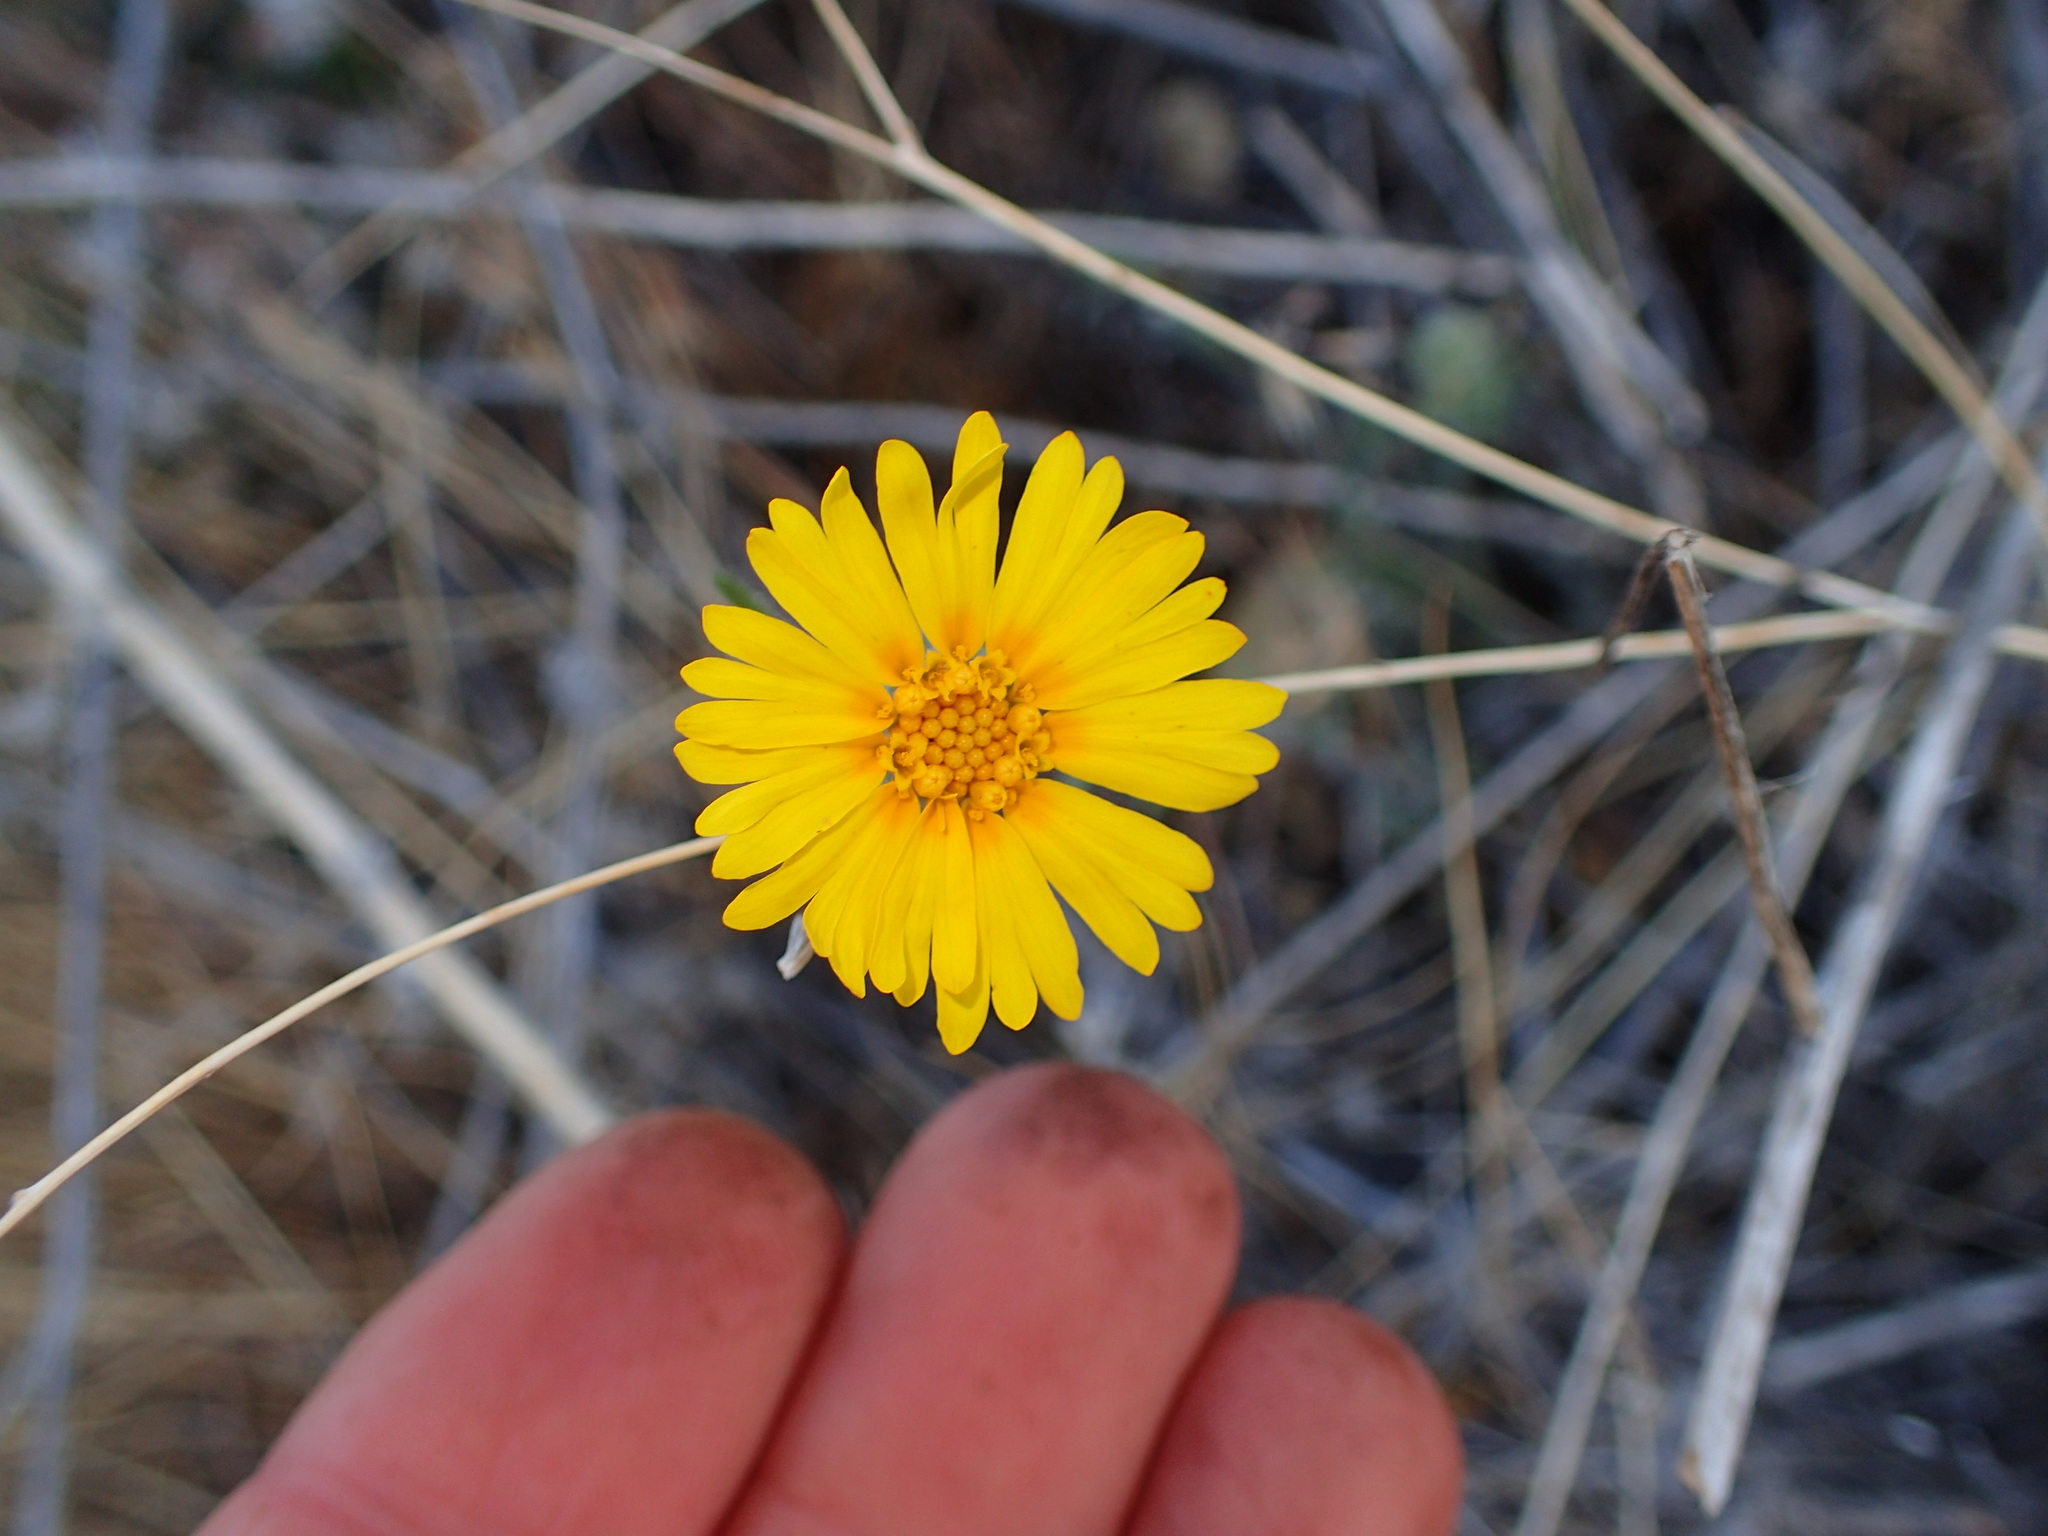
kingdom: Plantae
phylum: Tracheophyta
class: Magnoliopsida
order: Asterales
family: Asteraceae
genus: Madia
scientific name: Madia elegans
